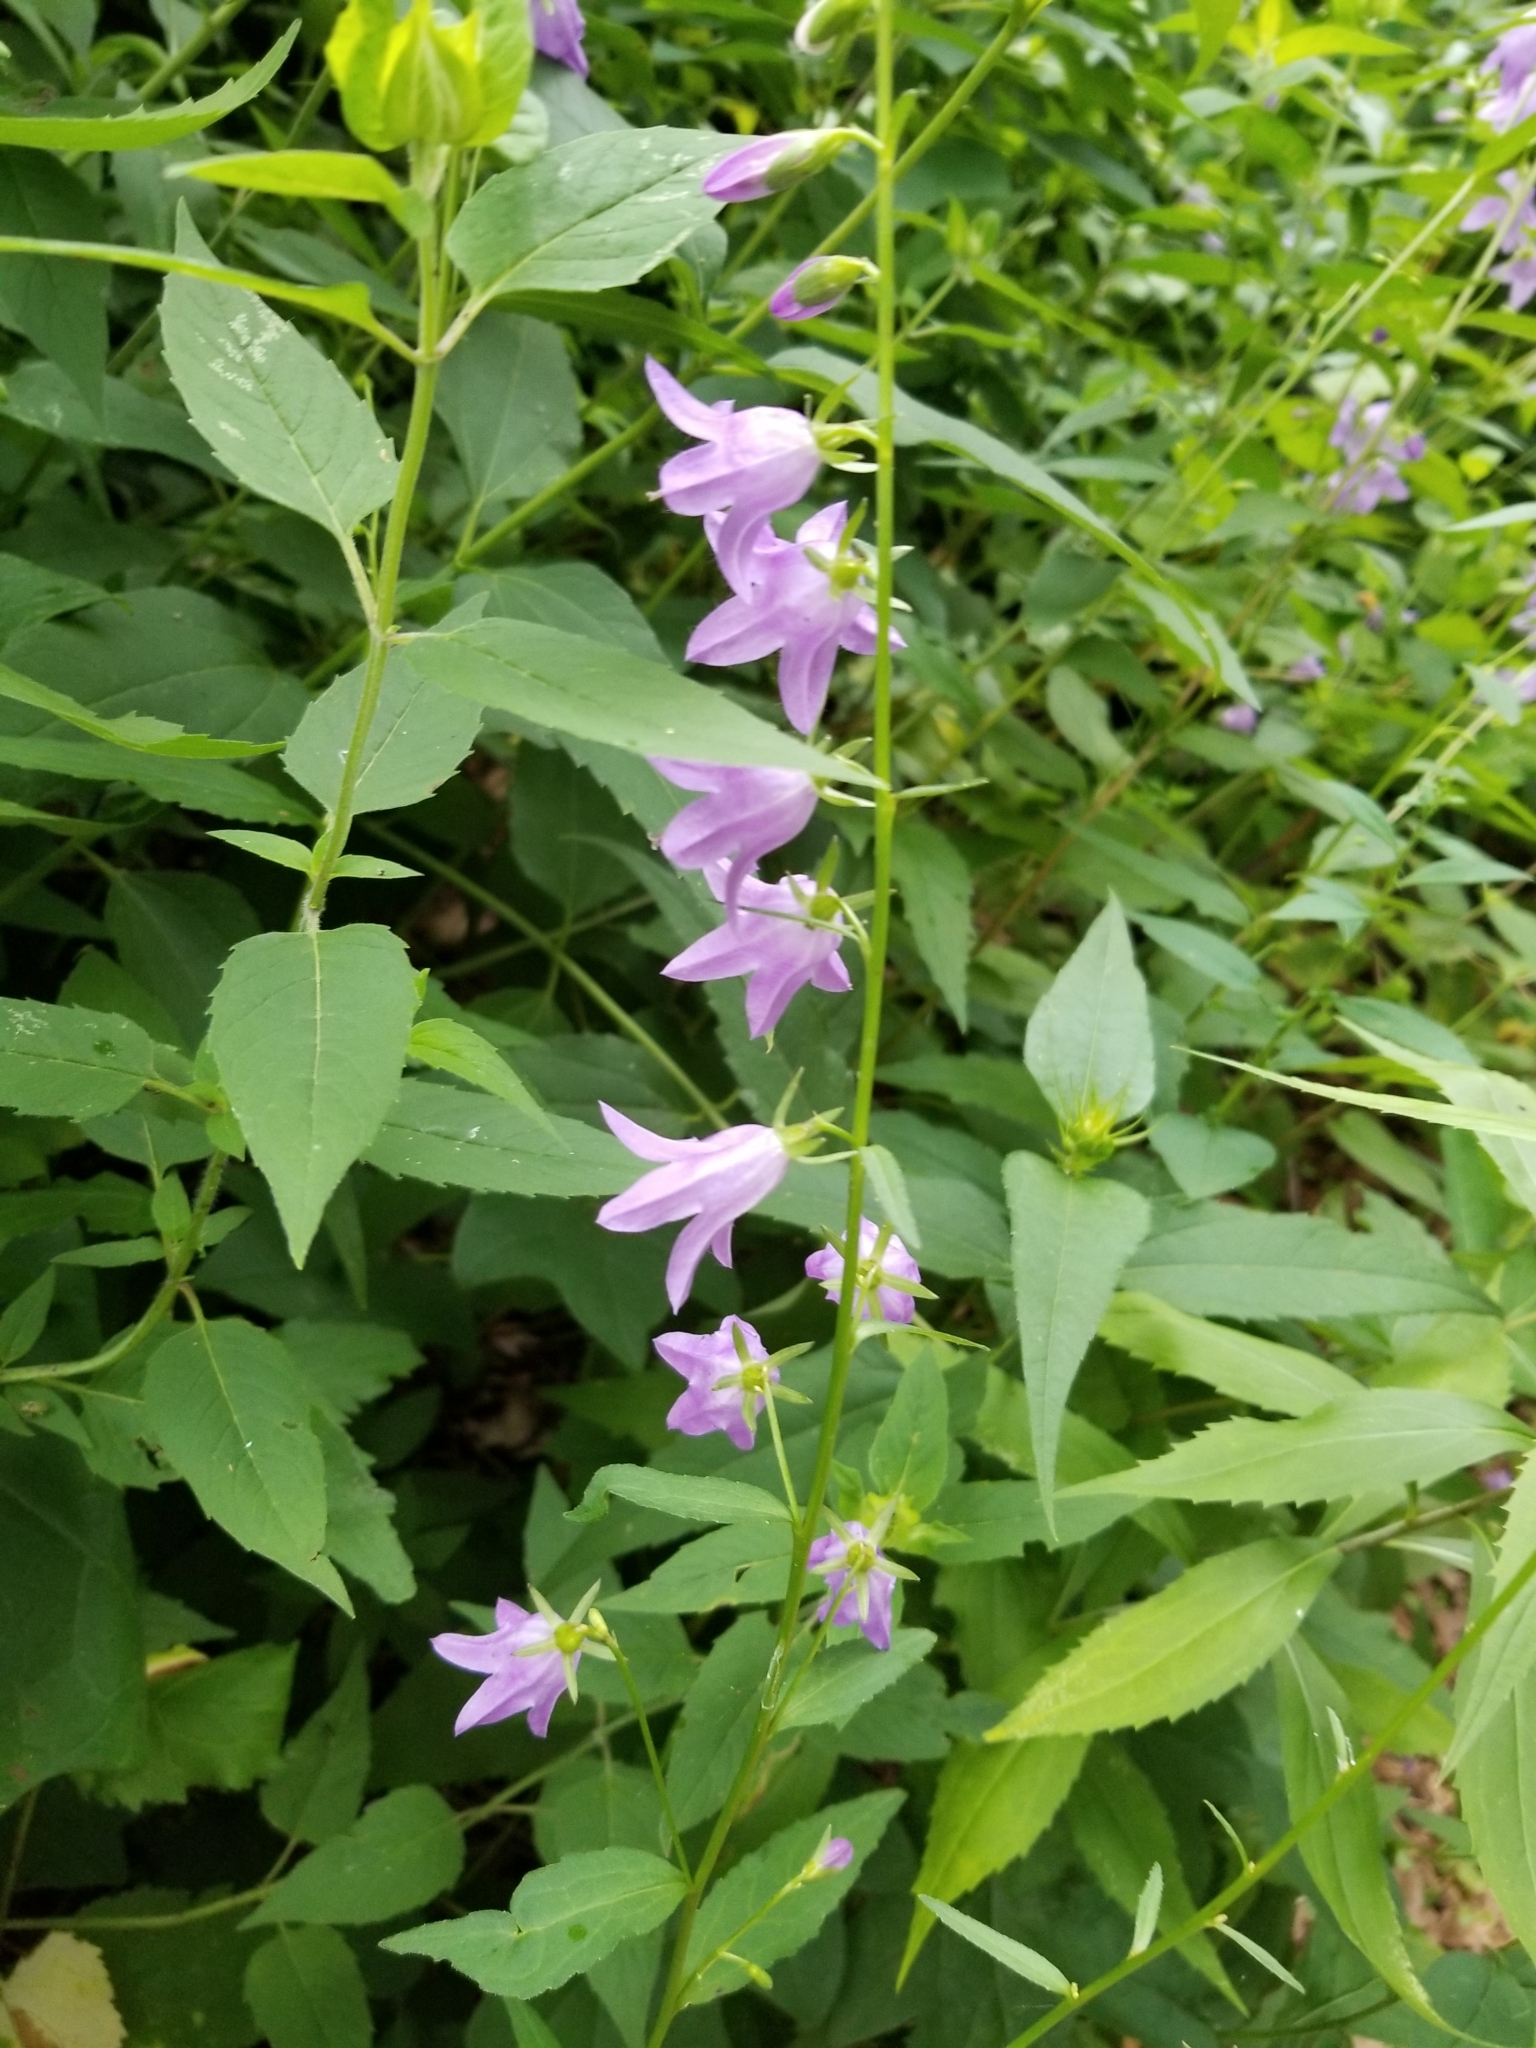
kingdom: Plantae
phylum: Tracheophyta
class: Magnoliopsida
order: Asterales
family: Campanulaceae
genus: Campanula
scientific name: Campanula rapunculoides
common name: Creeping bellflower
